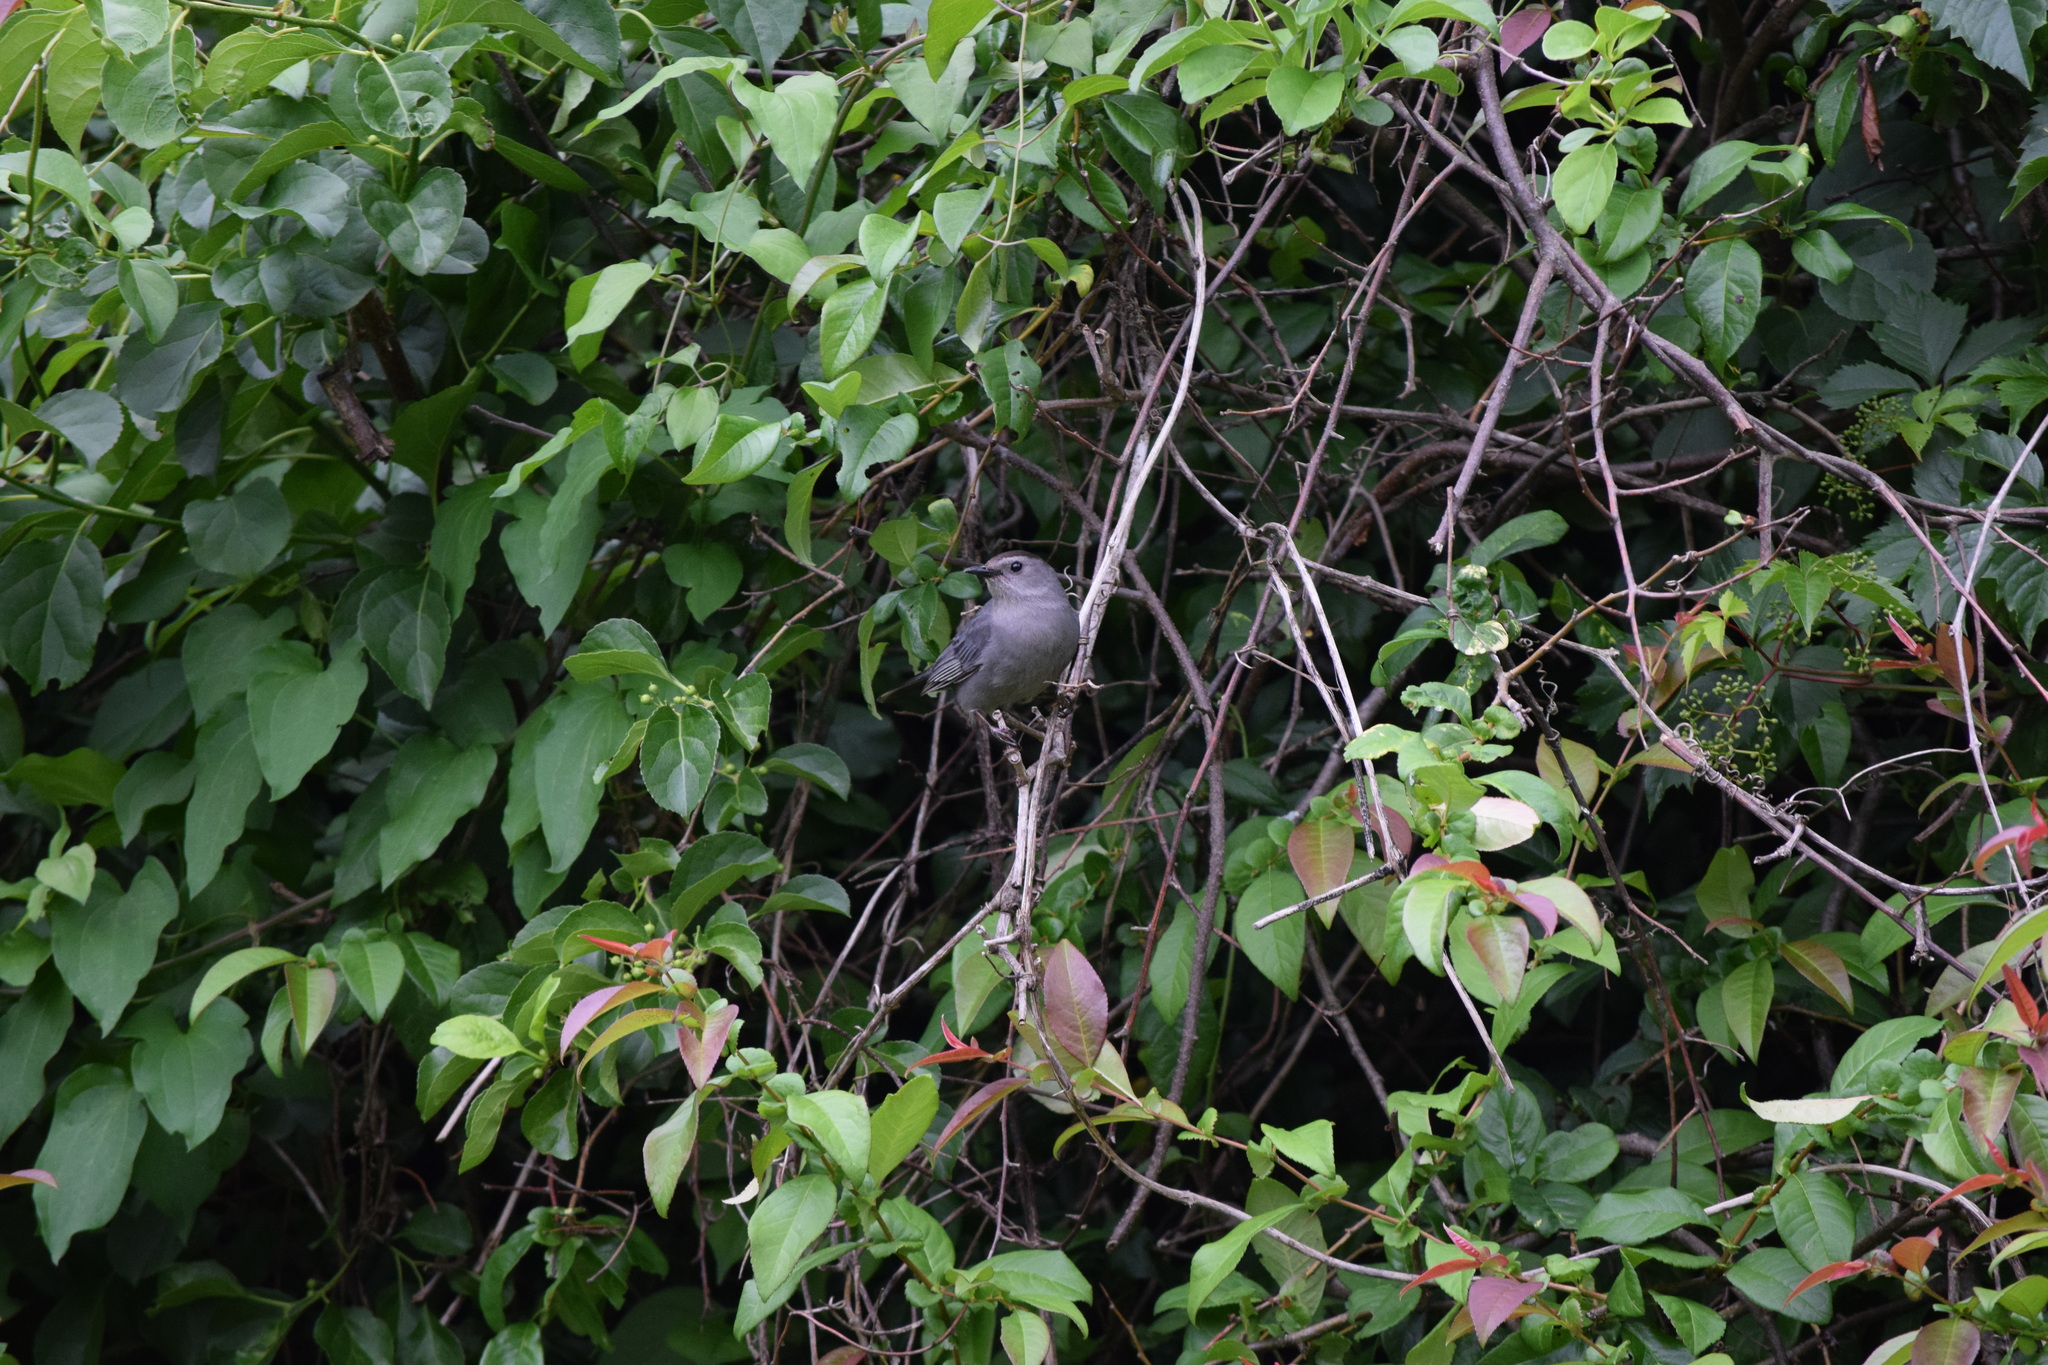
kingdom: Animalia
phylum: Chordata
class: Aves
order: Passeriformes
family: Mimidae
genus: Dumetella
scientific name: Dumetella carolinensis
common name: Gray catbird
